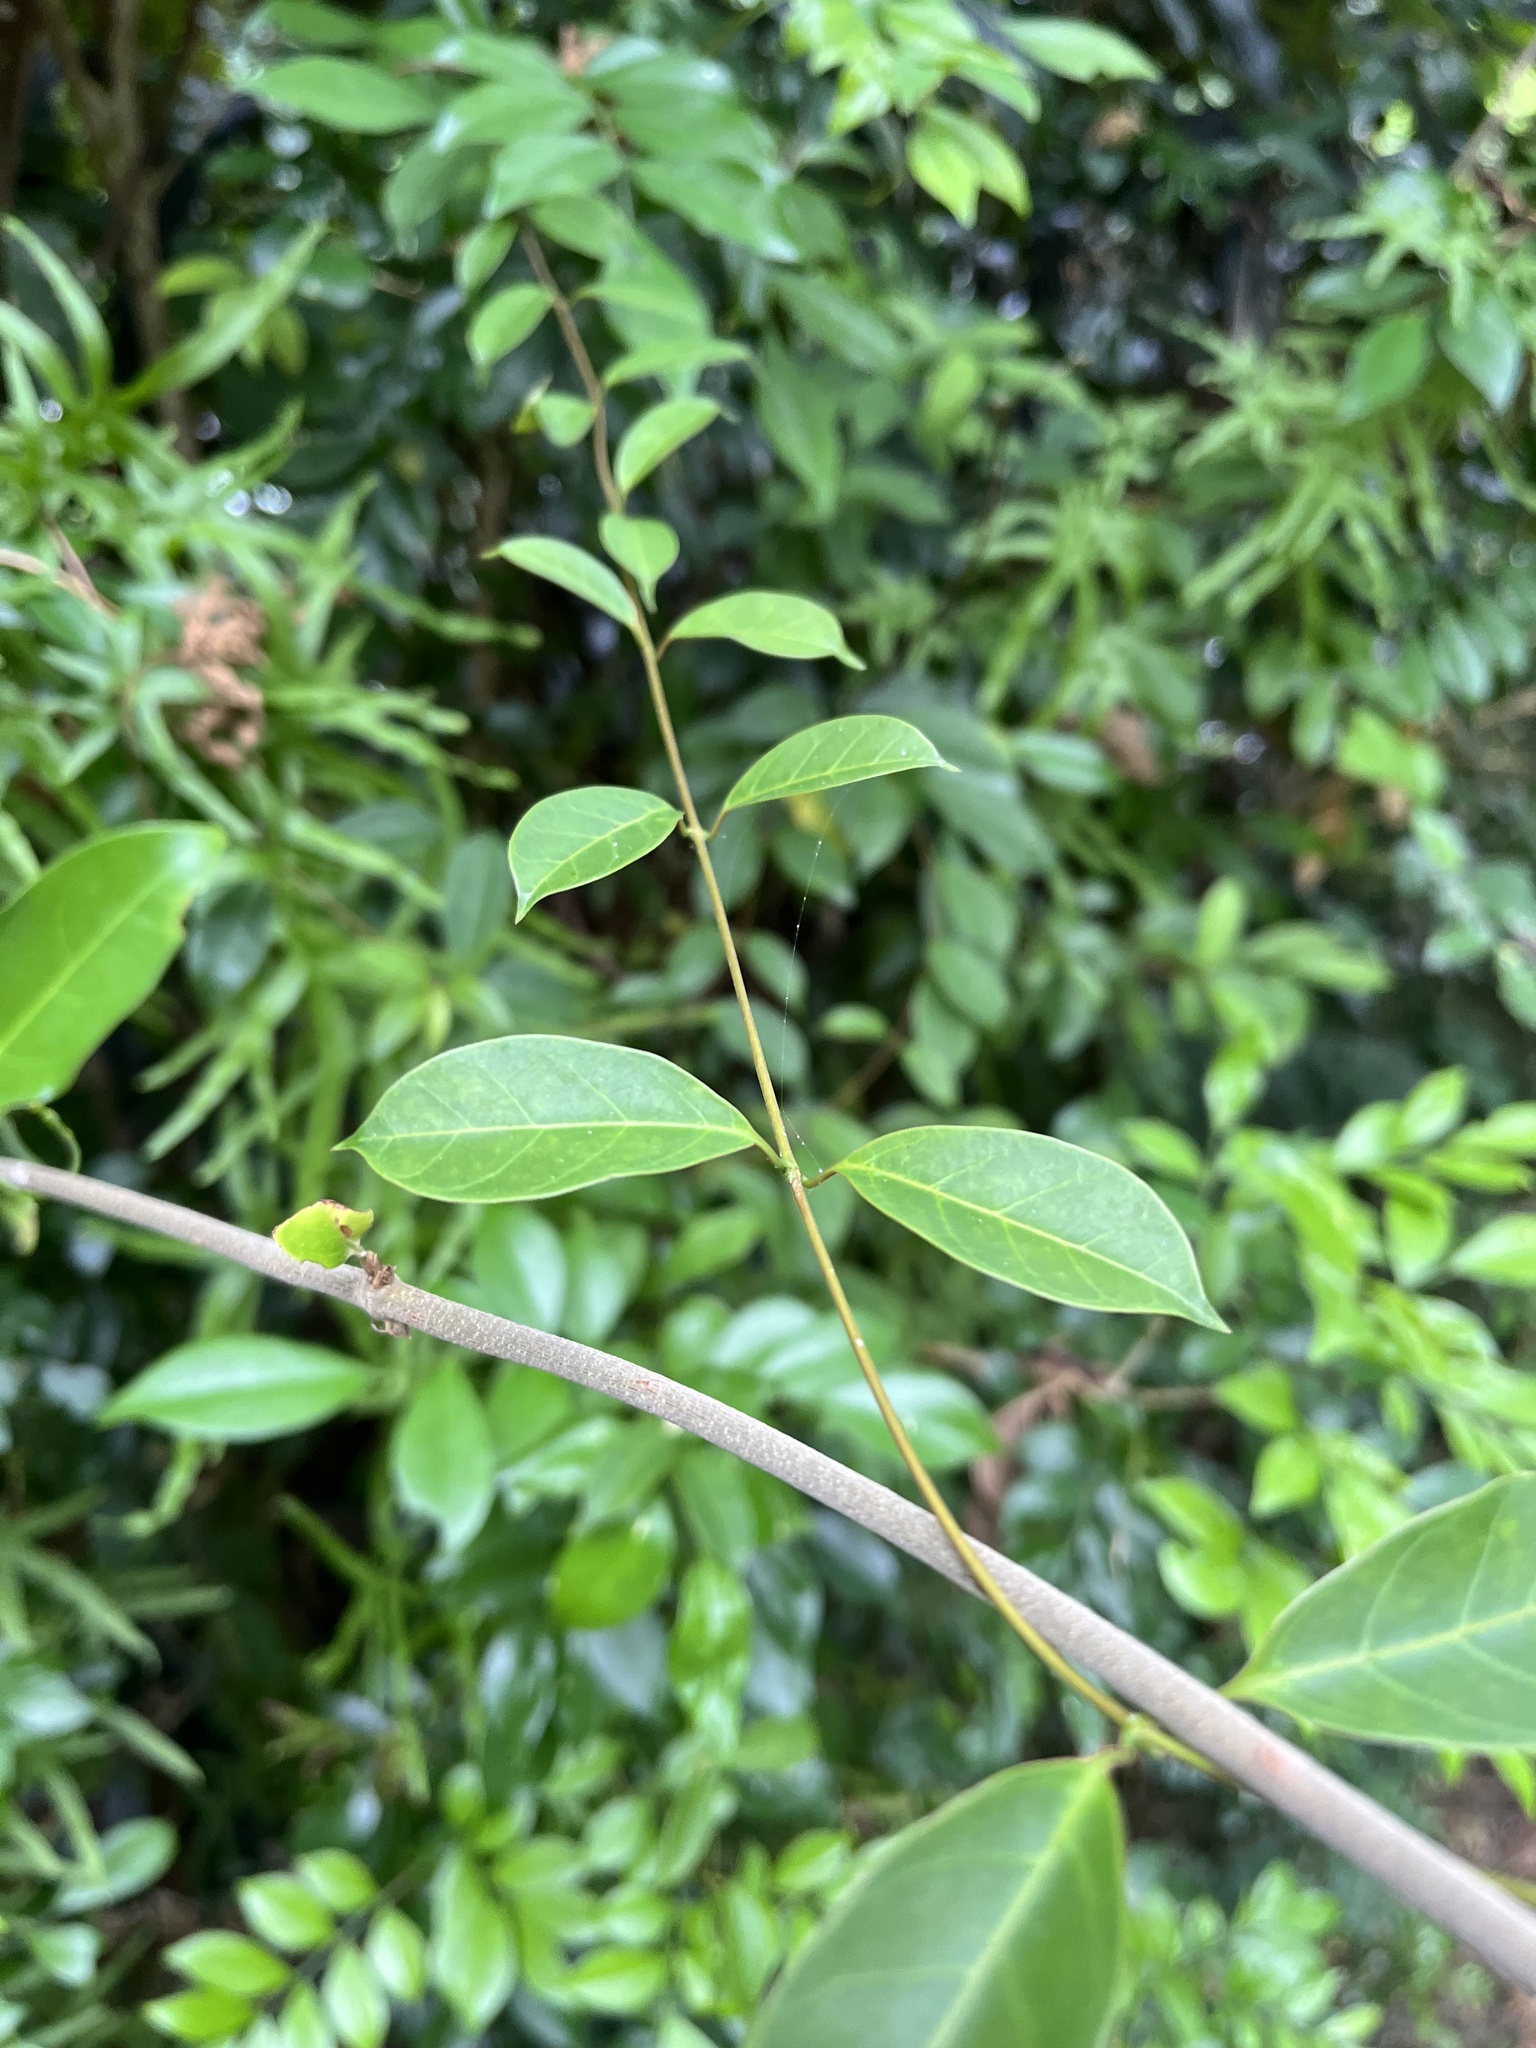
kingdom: Plantae
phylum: Tracheophyta
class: Magnoliopsida
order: Gentianales
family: Apocynaceae
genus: Urceola
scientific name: Urceola rosea
